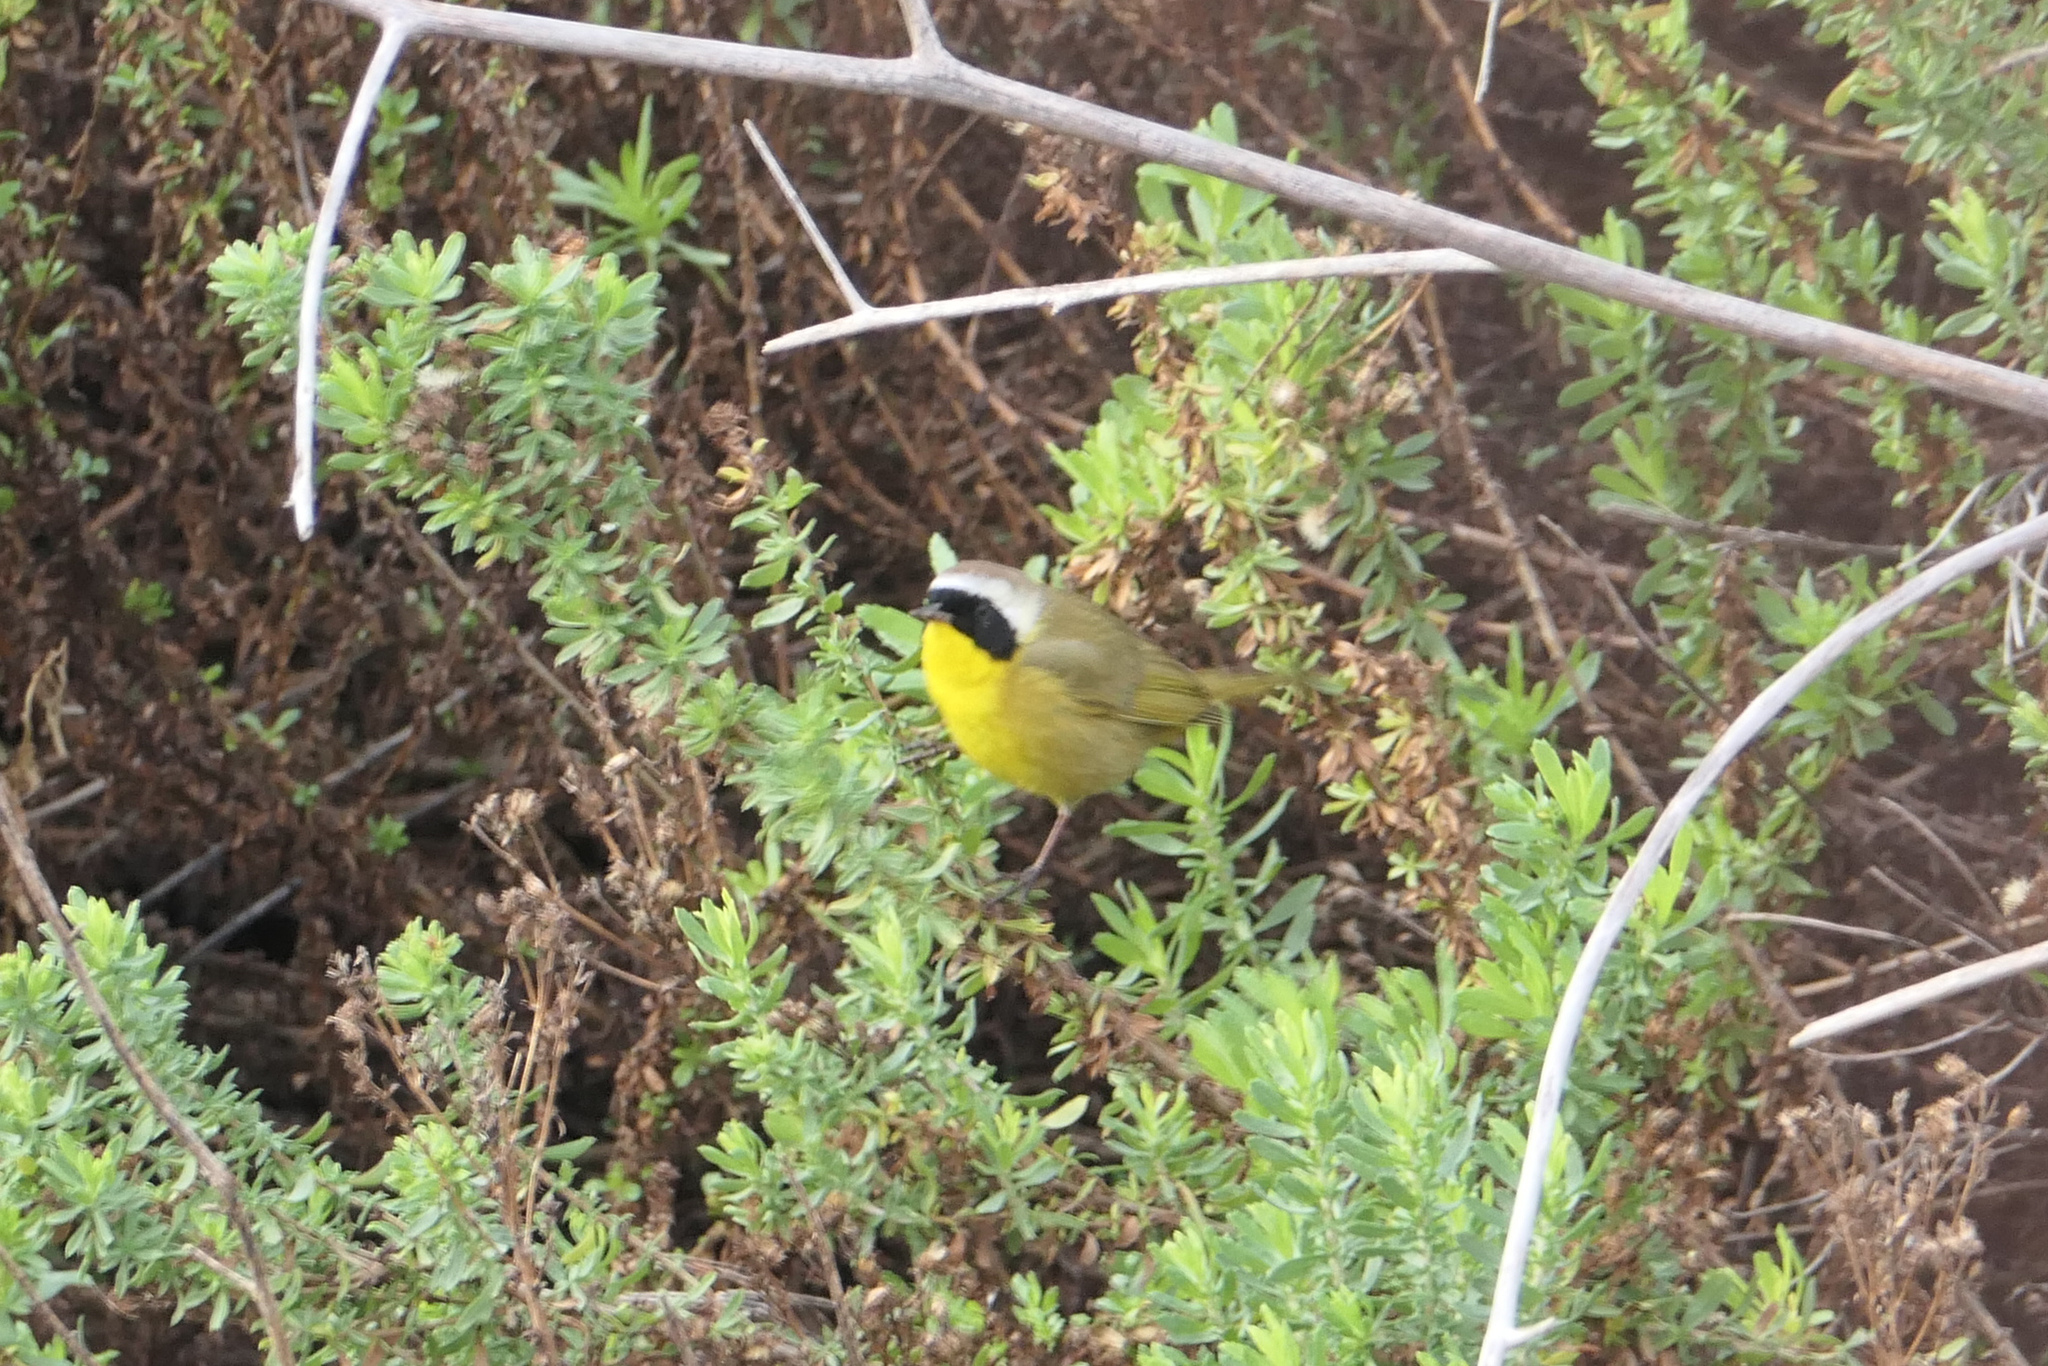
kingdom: Animalia
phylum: Chordata
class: Aves
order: Passeriformes
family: Parulidae
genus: Geothlypis
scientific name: Geothlypis trichas
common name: Common yellowthroat
